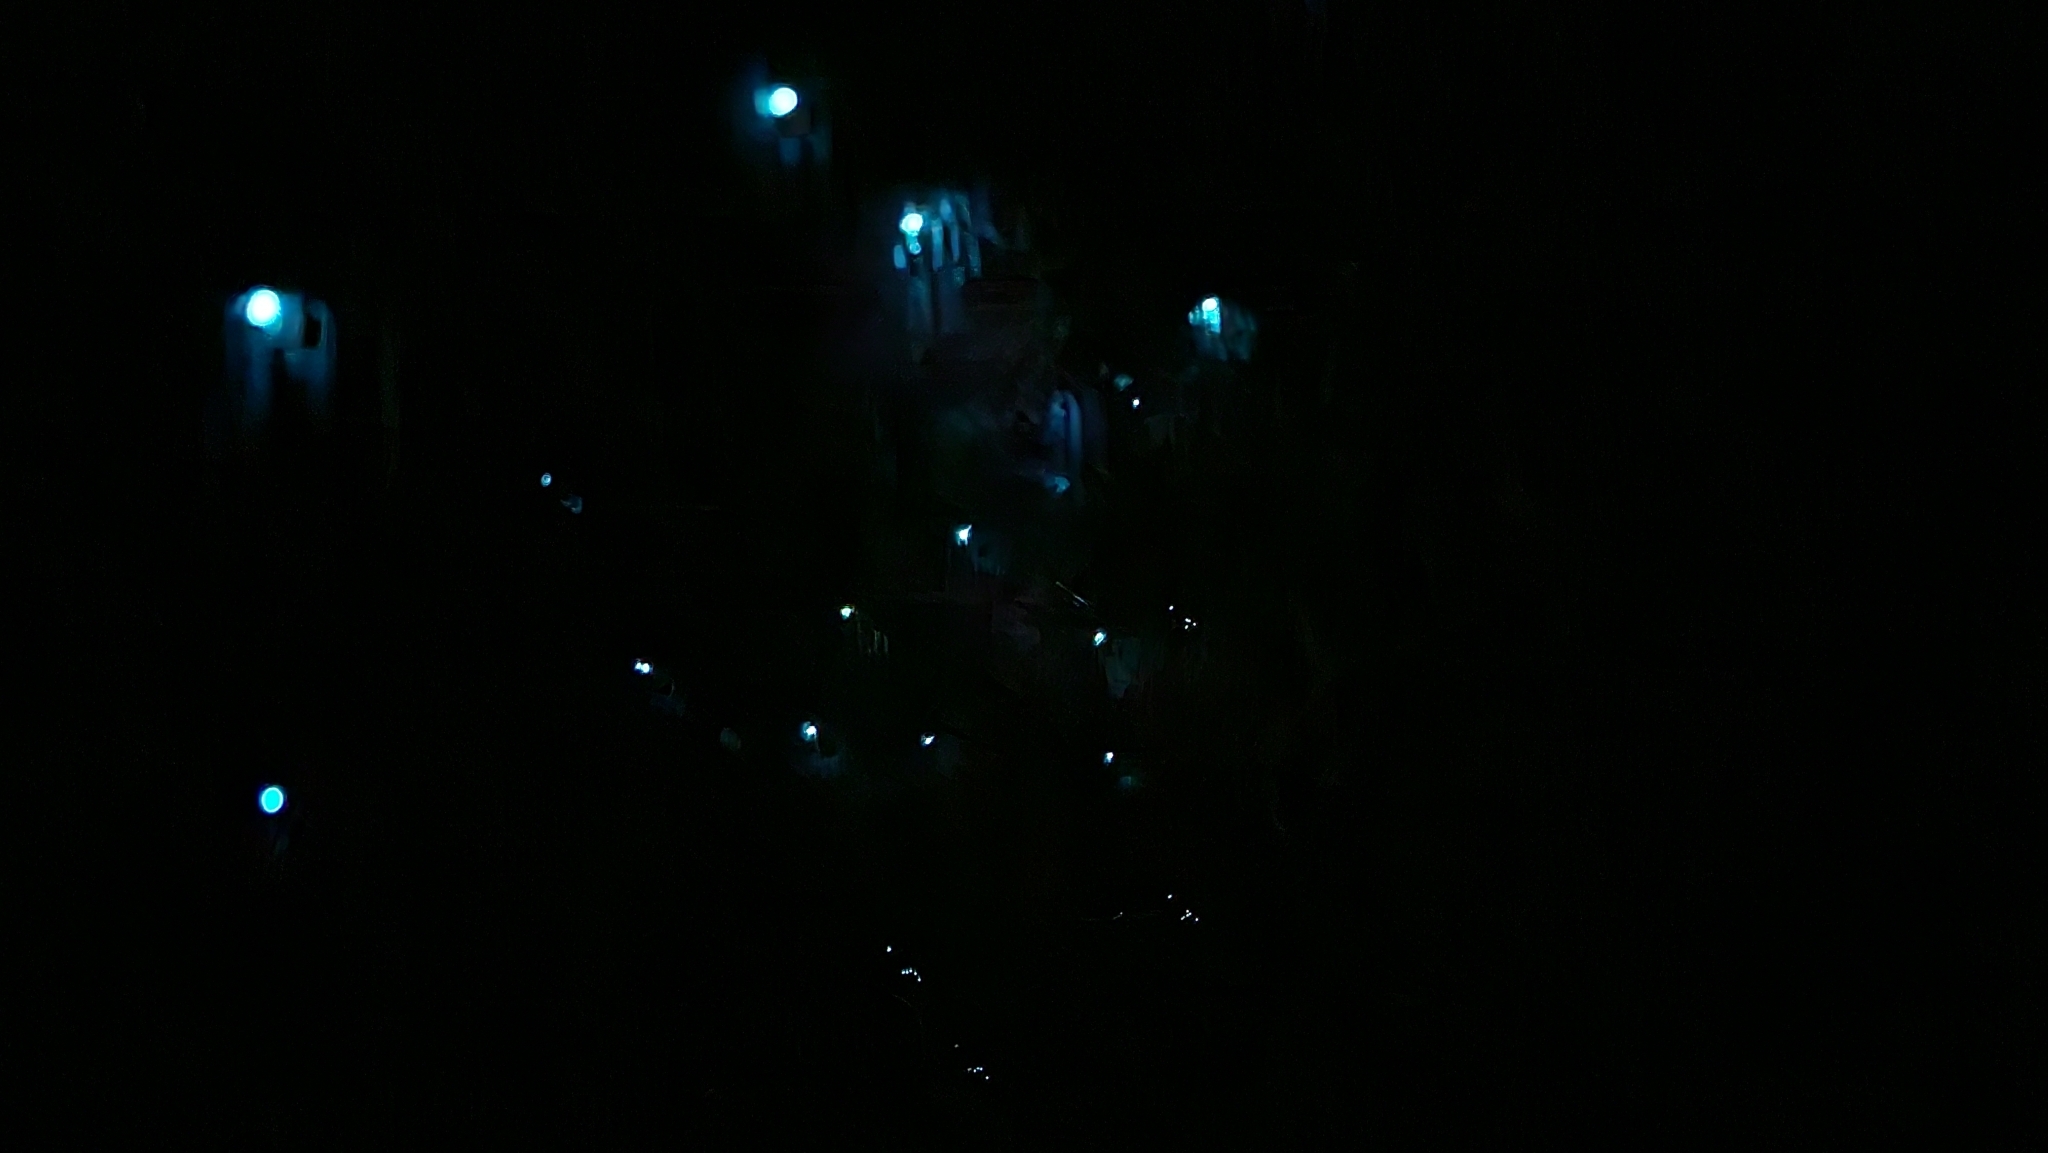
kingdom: Animalia
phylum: Arthropoda
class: Insecta
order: Diptera
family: Keroplatidae
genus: Arachnocampa
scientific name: Arachnocampa luminosa
